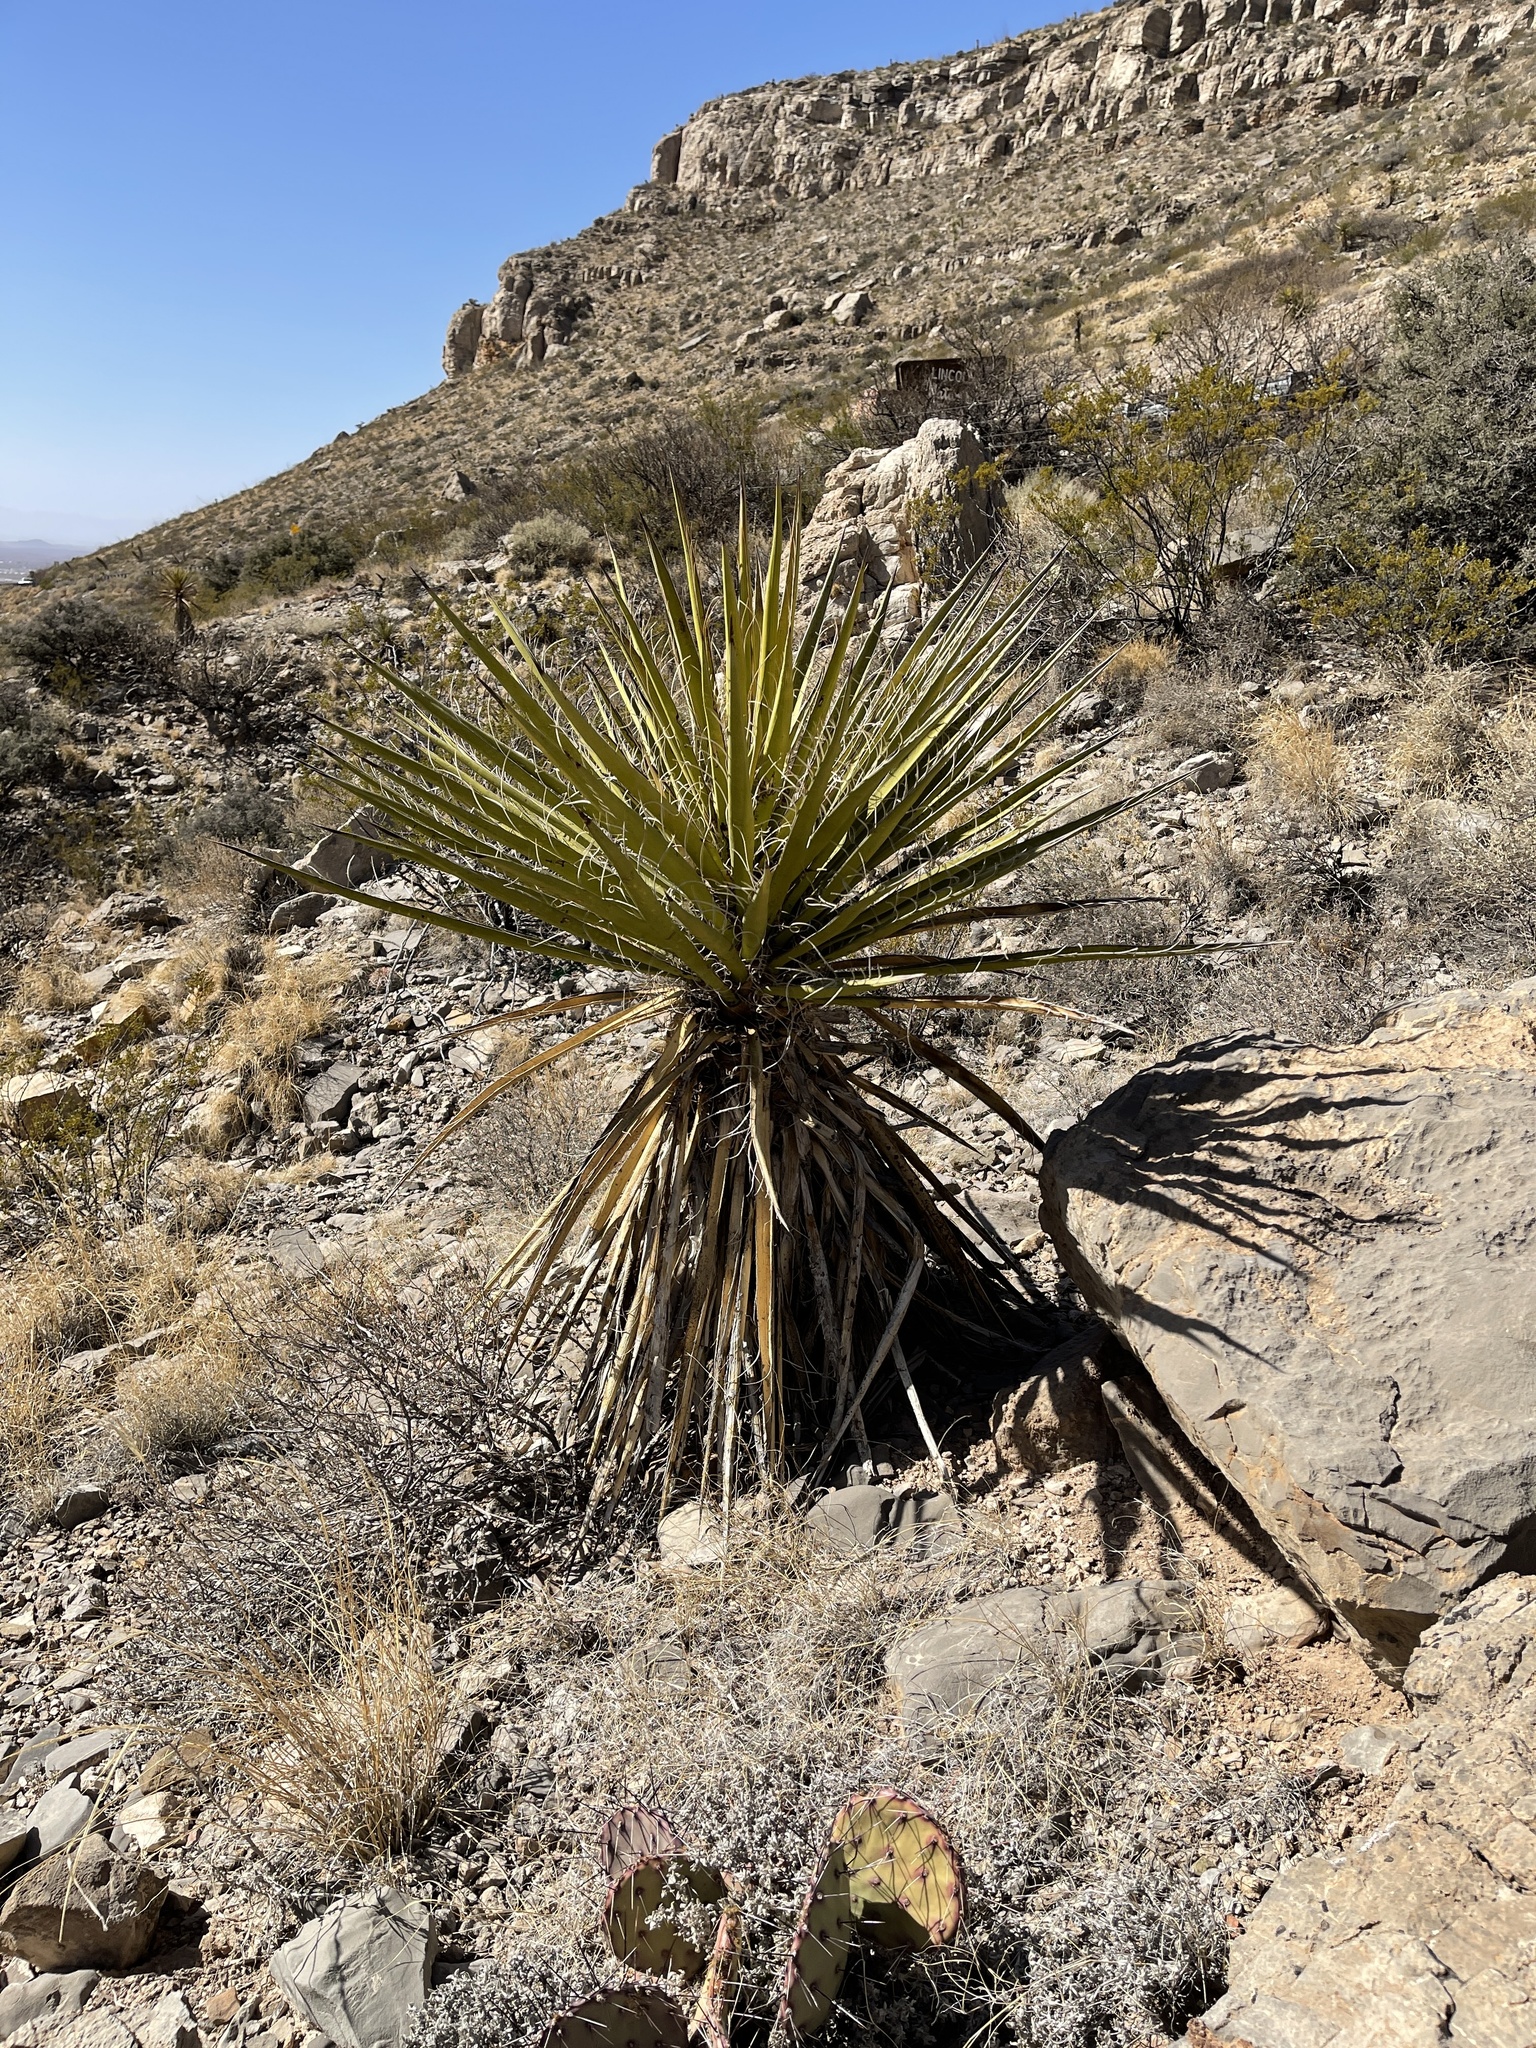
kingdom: Plantae
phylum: Tracheophyta
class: Liliopsida
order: Asparagales
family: Asparagaceae
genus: Yucca
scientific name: Yucca treculiana
